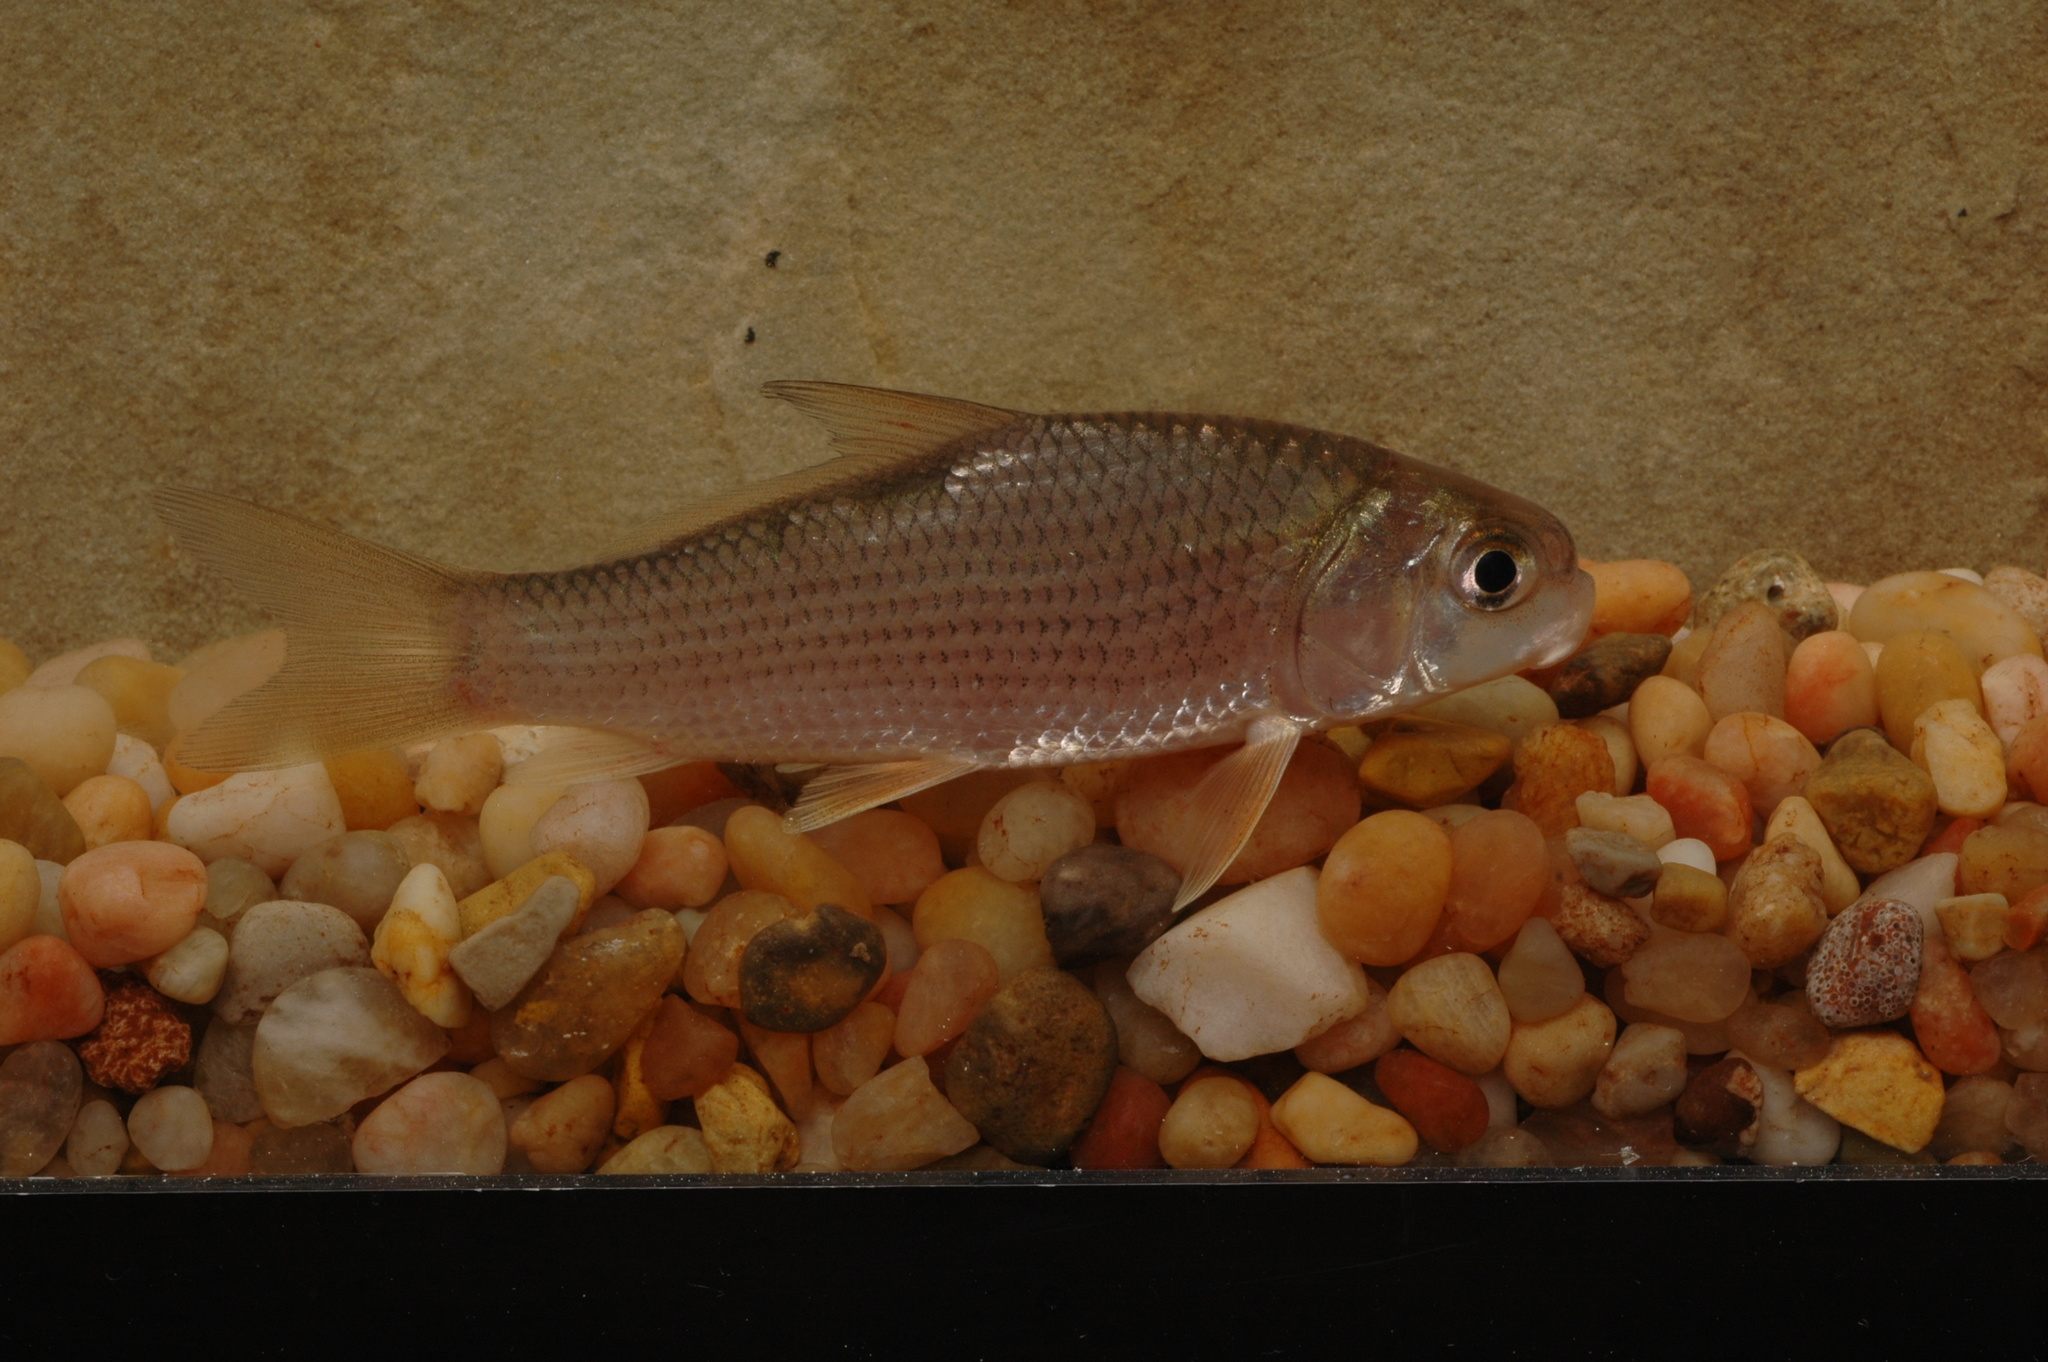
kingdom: Animalia
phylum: Chordata
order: Cypriniformes
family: Catostomidae
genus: Carpiodes
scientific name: Carpiodes carpio
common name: River carpsucker
